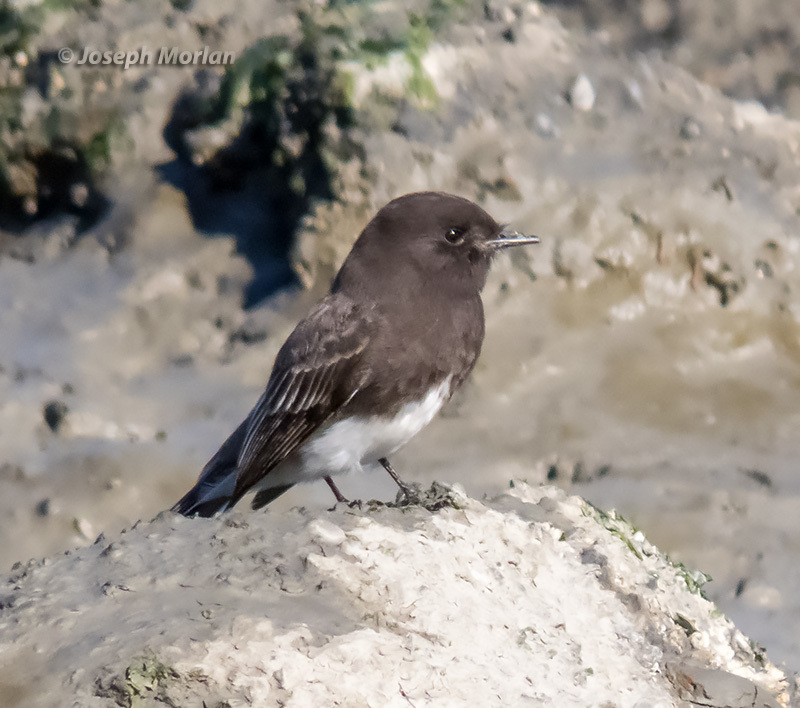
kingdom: Animalia
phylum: Chordata
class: Aves
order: Passeriformes
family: Tyrannidae
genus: Sayornis
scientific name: Sayornis nigricans
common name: Black phoebe
